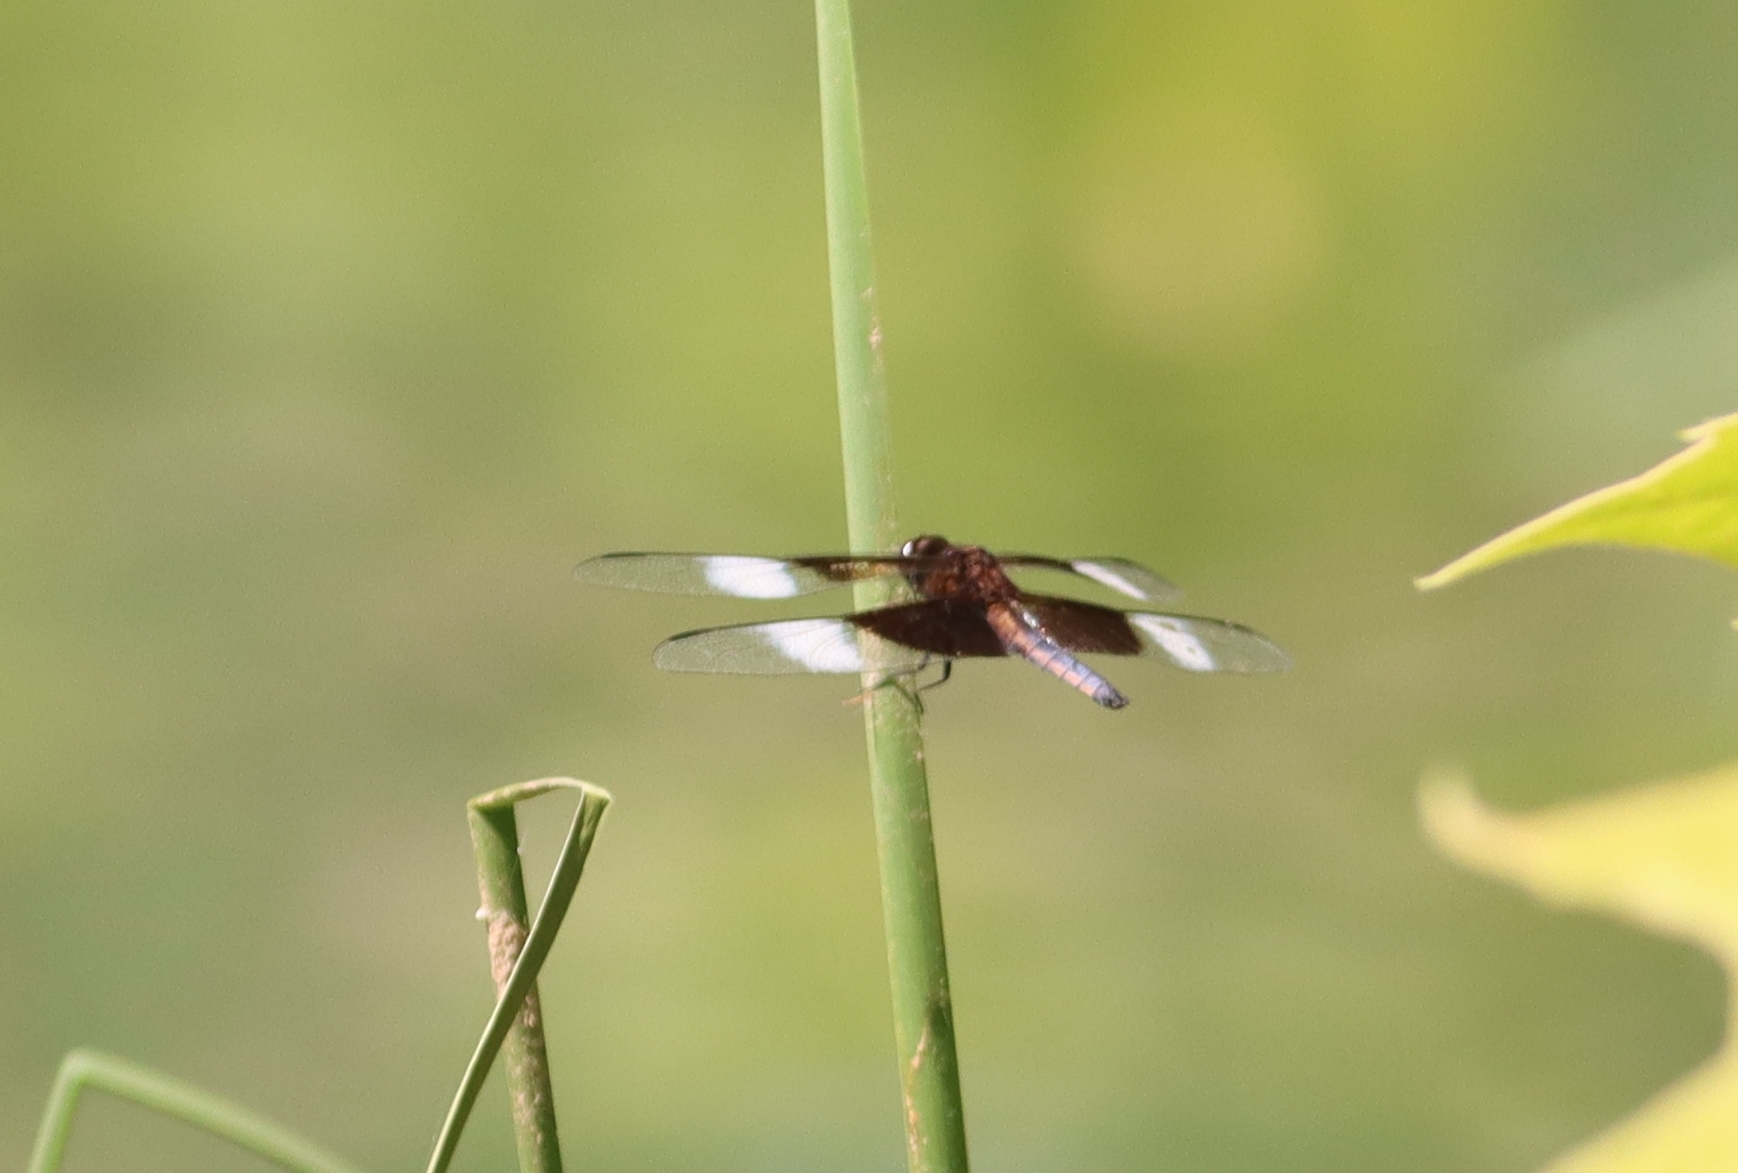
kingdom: Animalia
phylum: Arthropoda
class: Insecta
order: Odonata
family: Libellulidae
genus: Libellula
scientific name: Libellula luctuosa
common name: Widow skimmer
